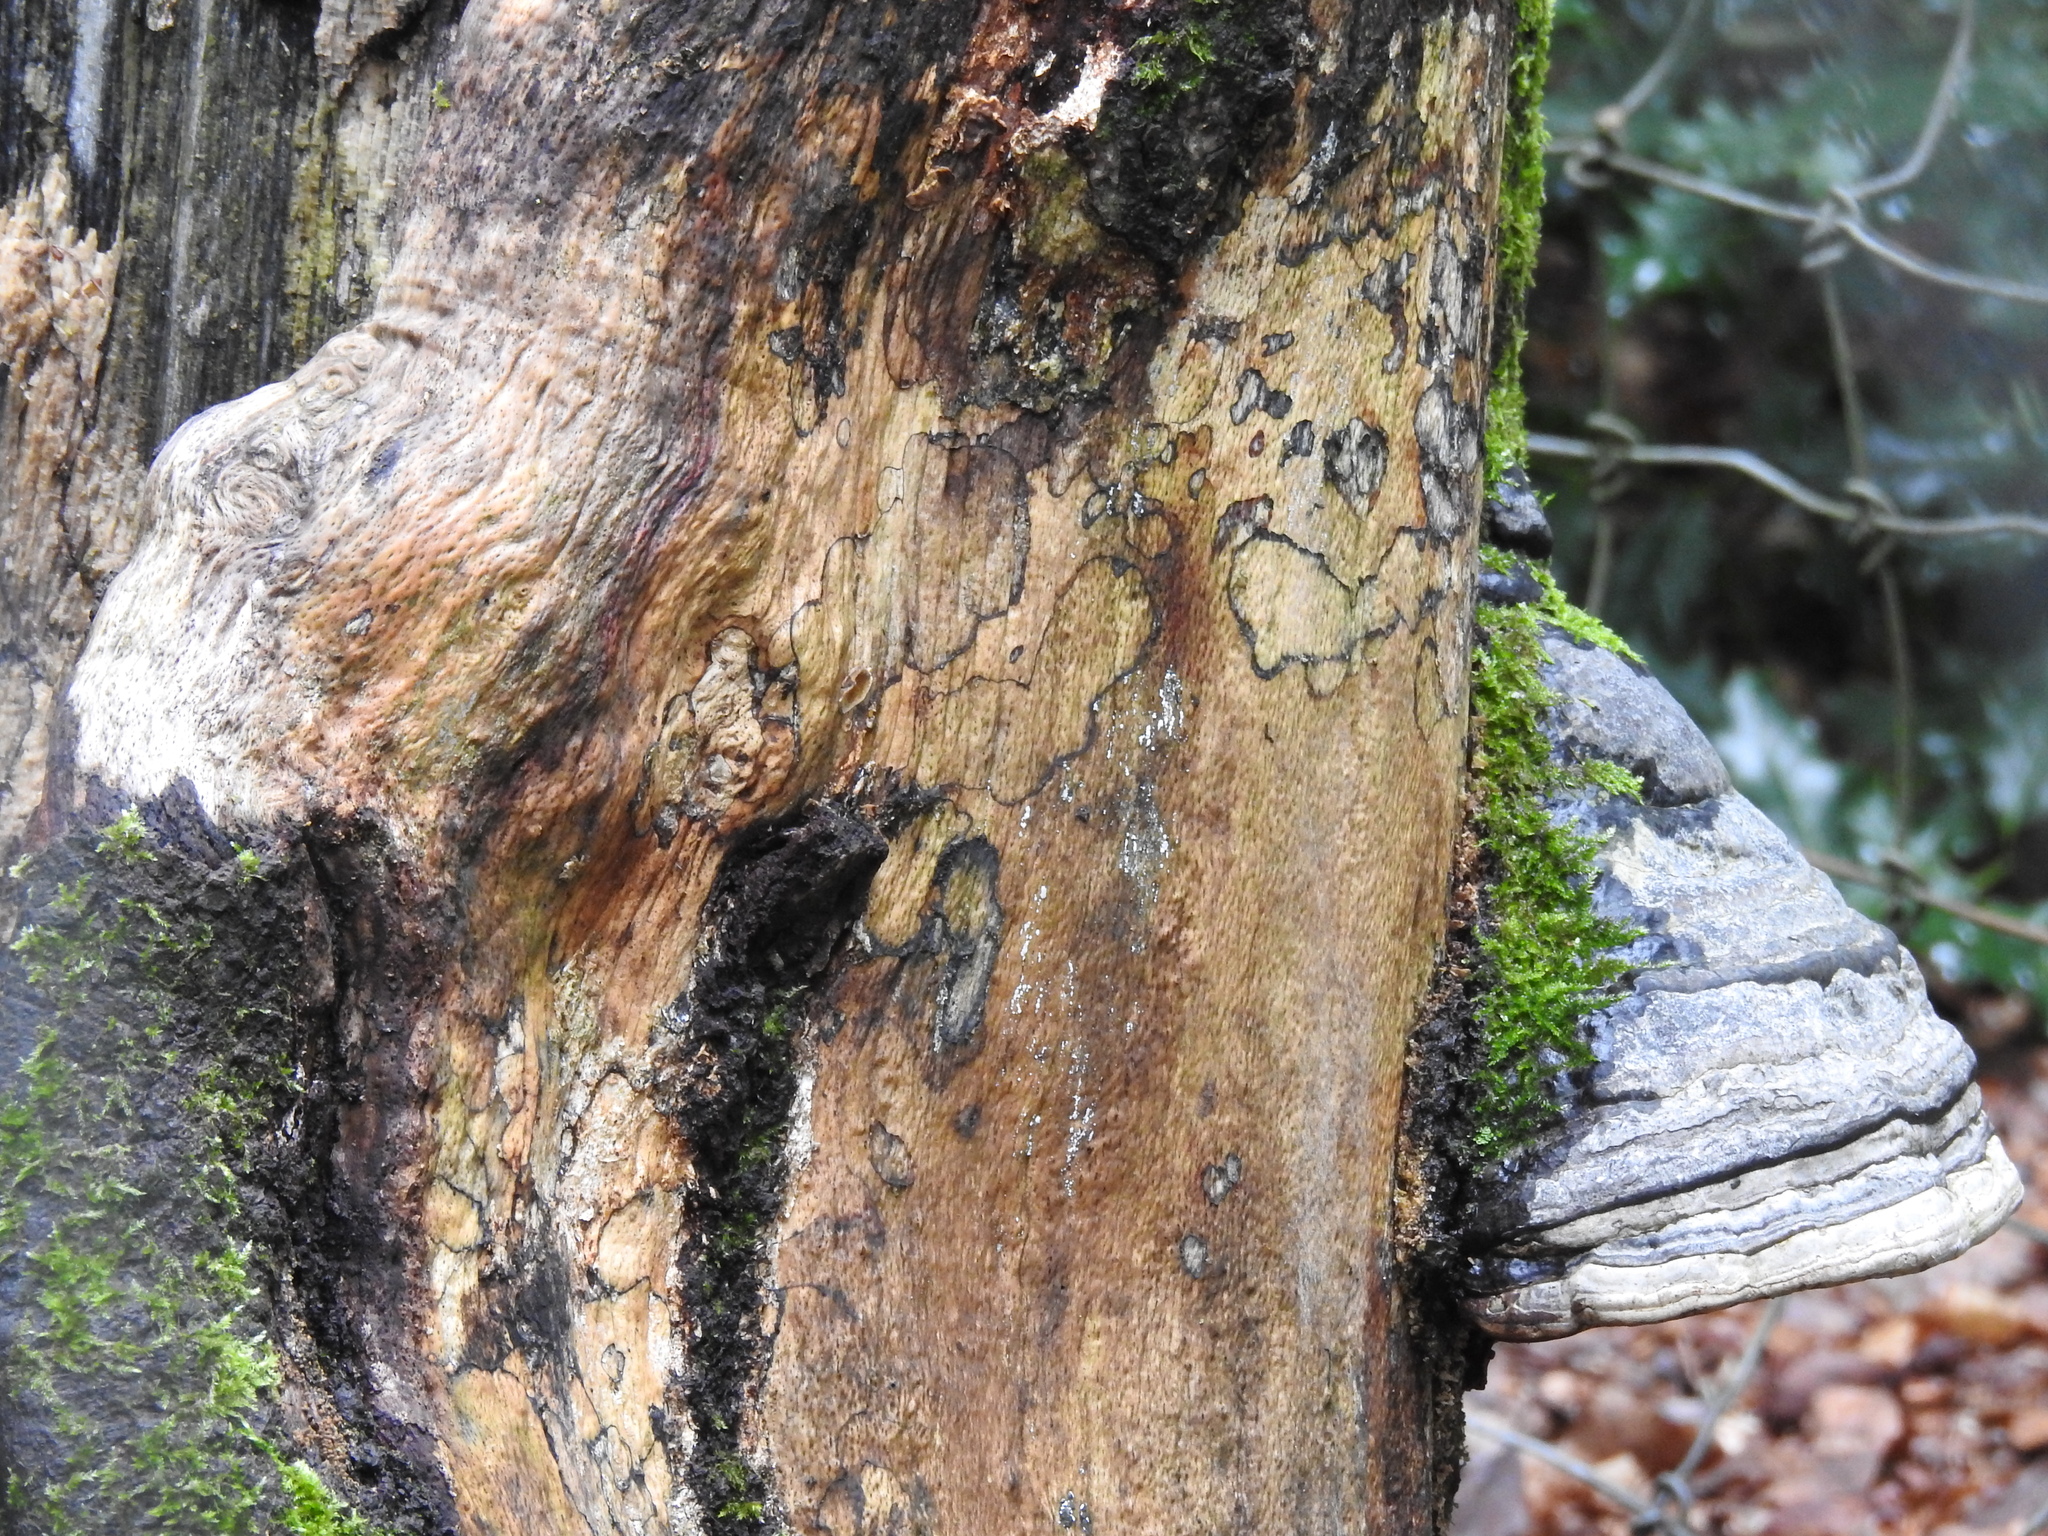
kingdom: Fungi
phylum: Basidiomycota
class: Agaricomycetes
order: Polyporales
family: Polyporaceae
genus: Fomes
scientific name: Fomes fomentarius
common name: Hoof fungus
